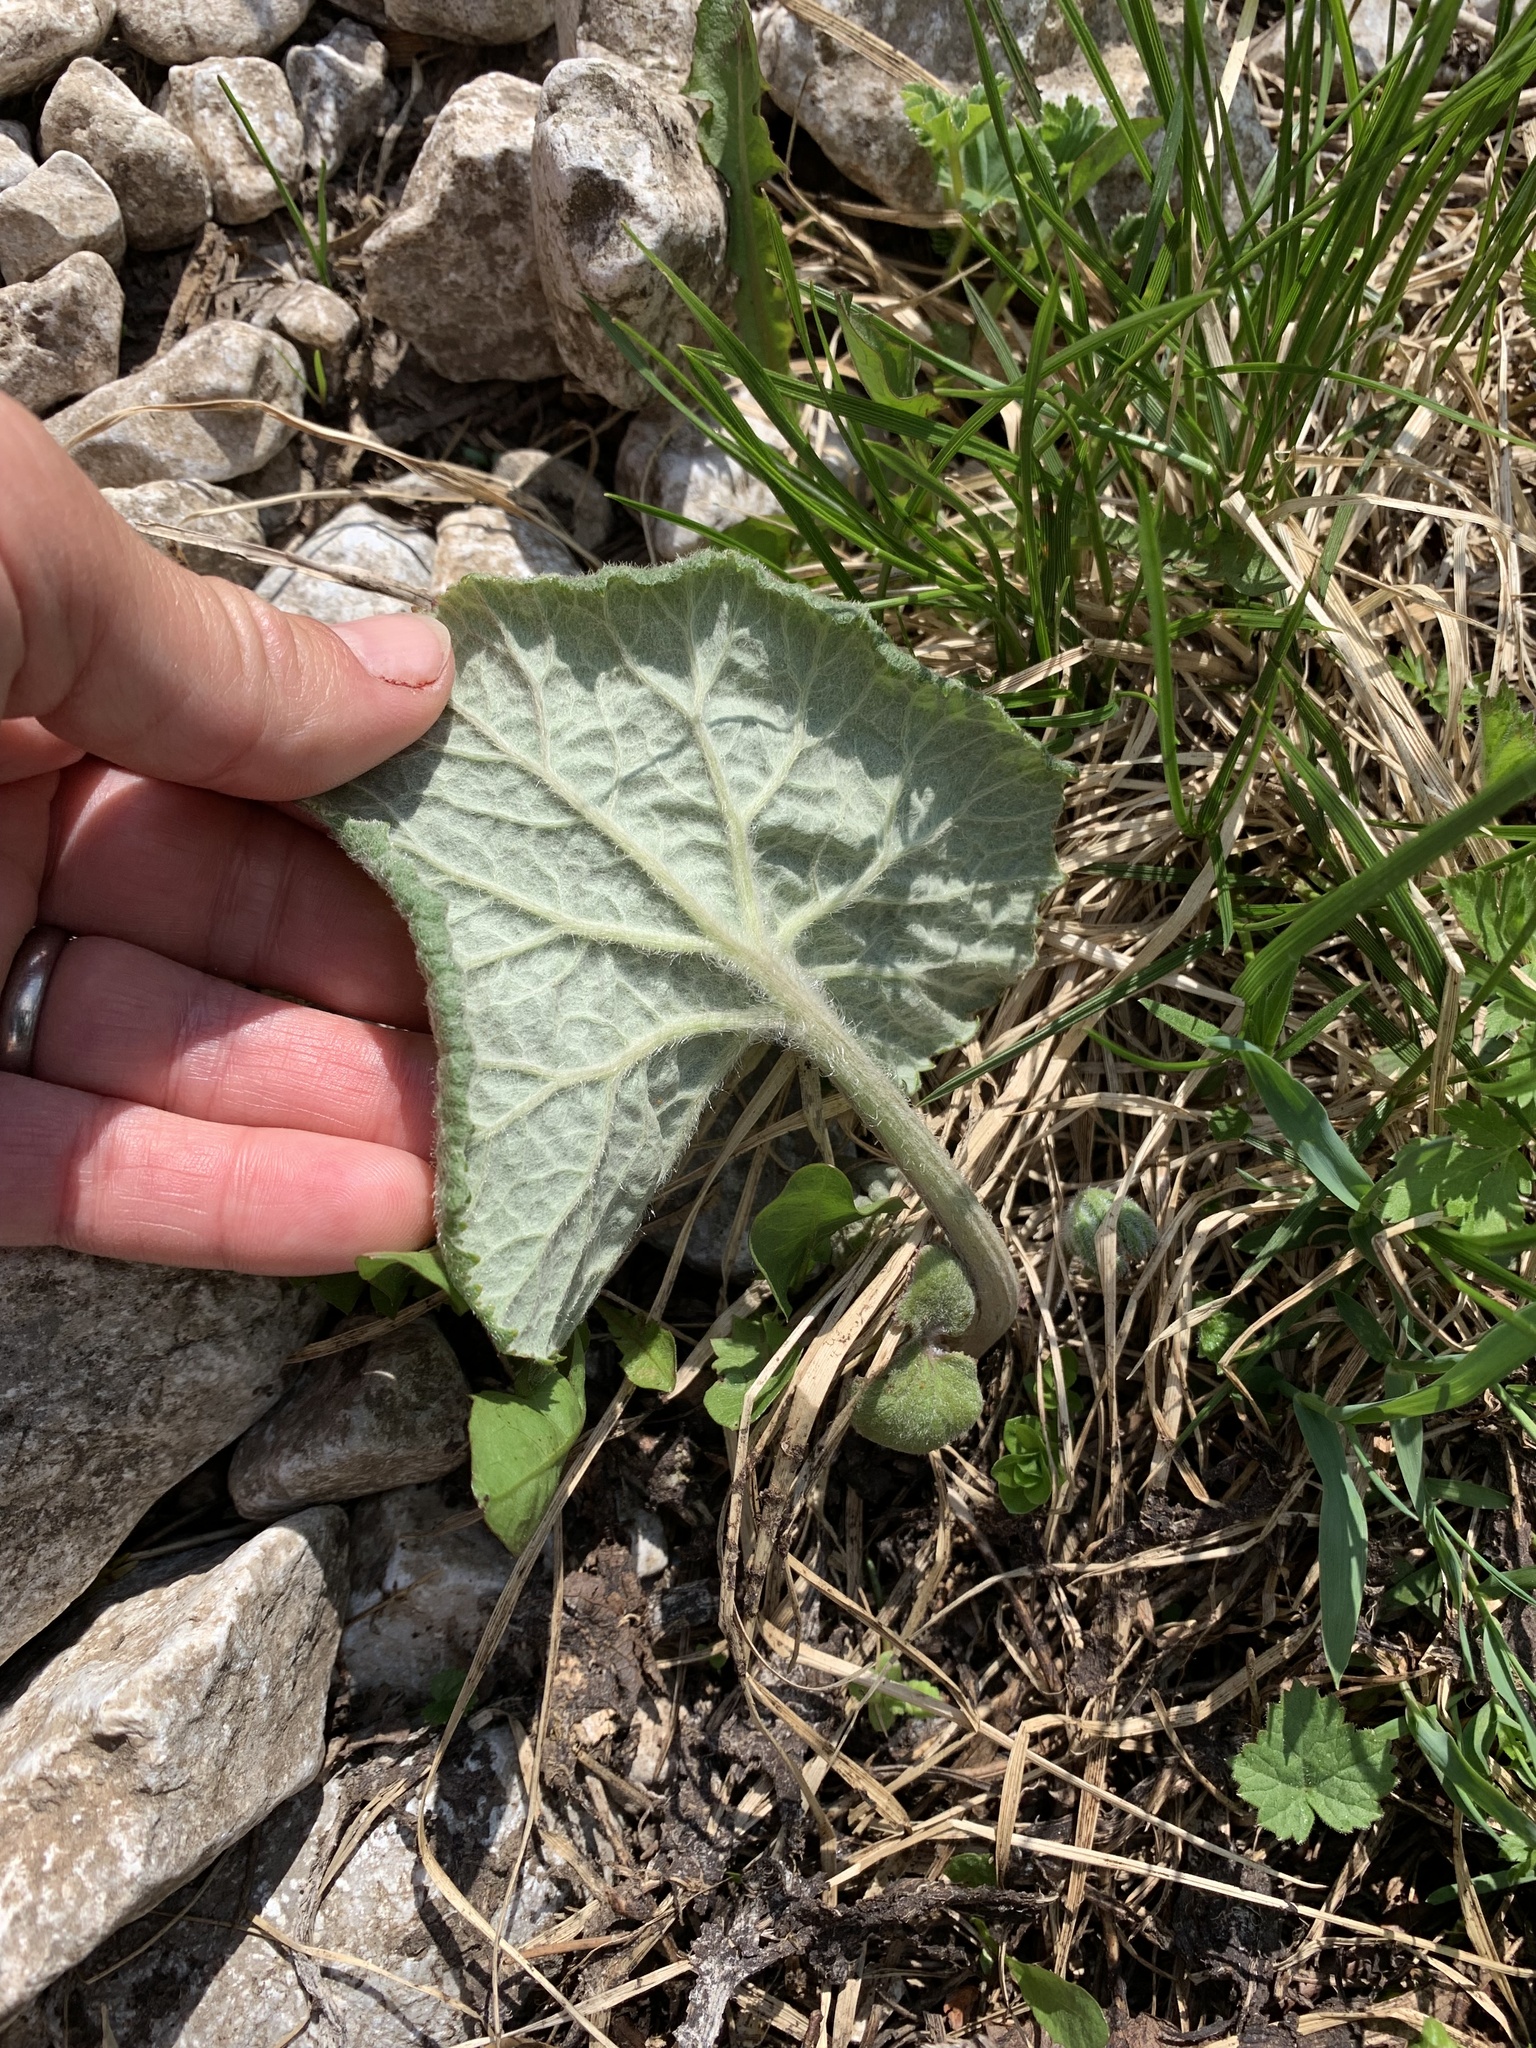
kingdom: Plantae
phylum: Tracheophyta
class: Magnoliopsida
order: Asterales
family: Asteraceae
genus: Petasites
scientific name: Petasites hybridus
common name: Butterbur
